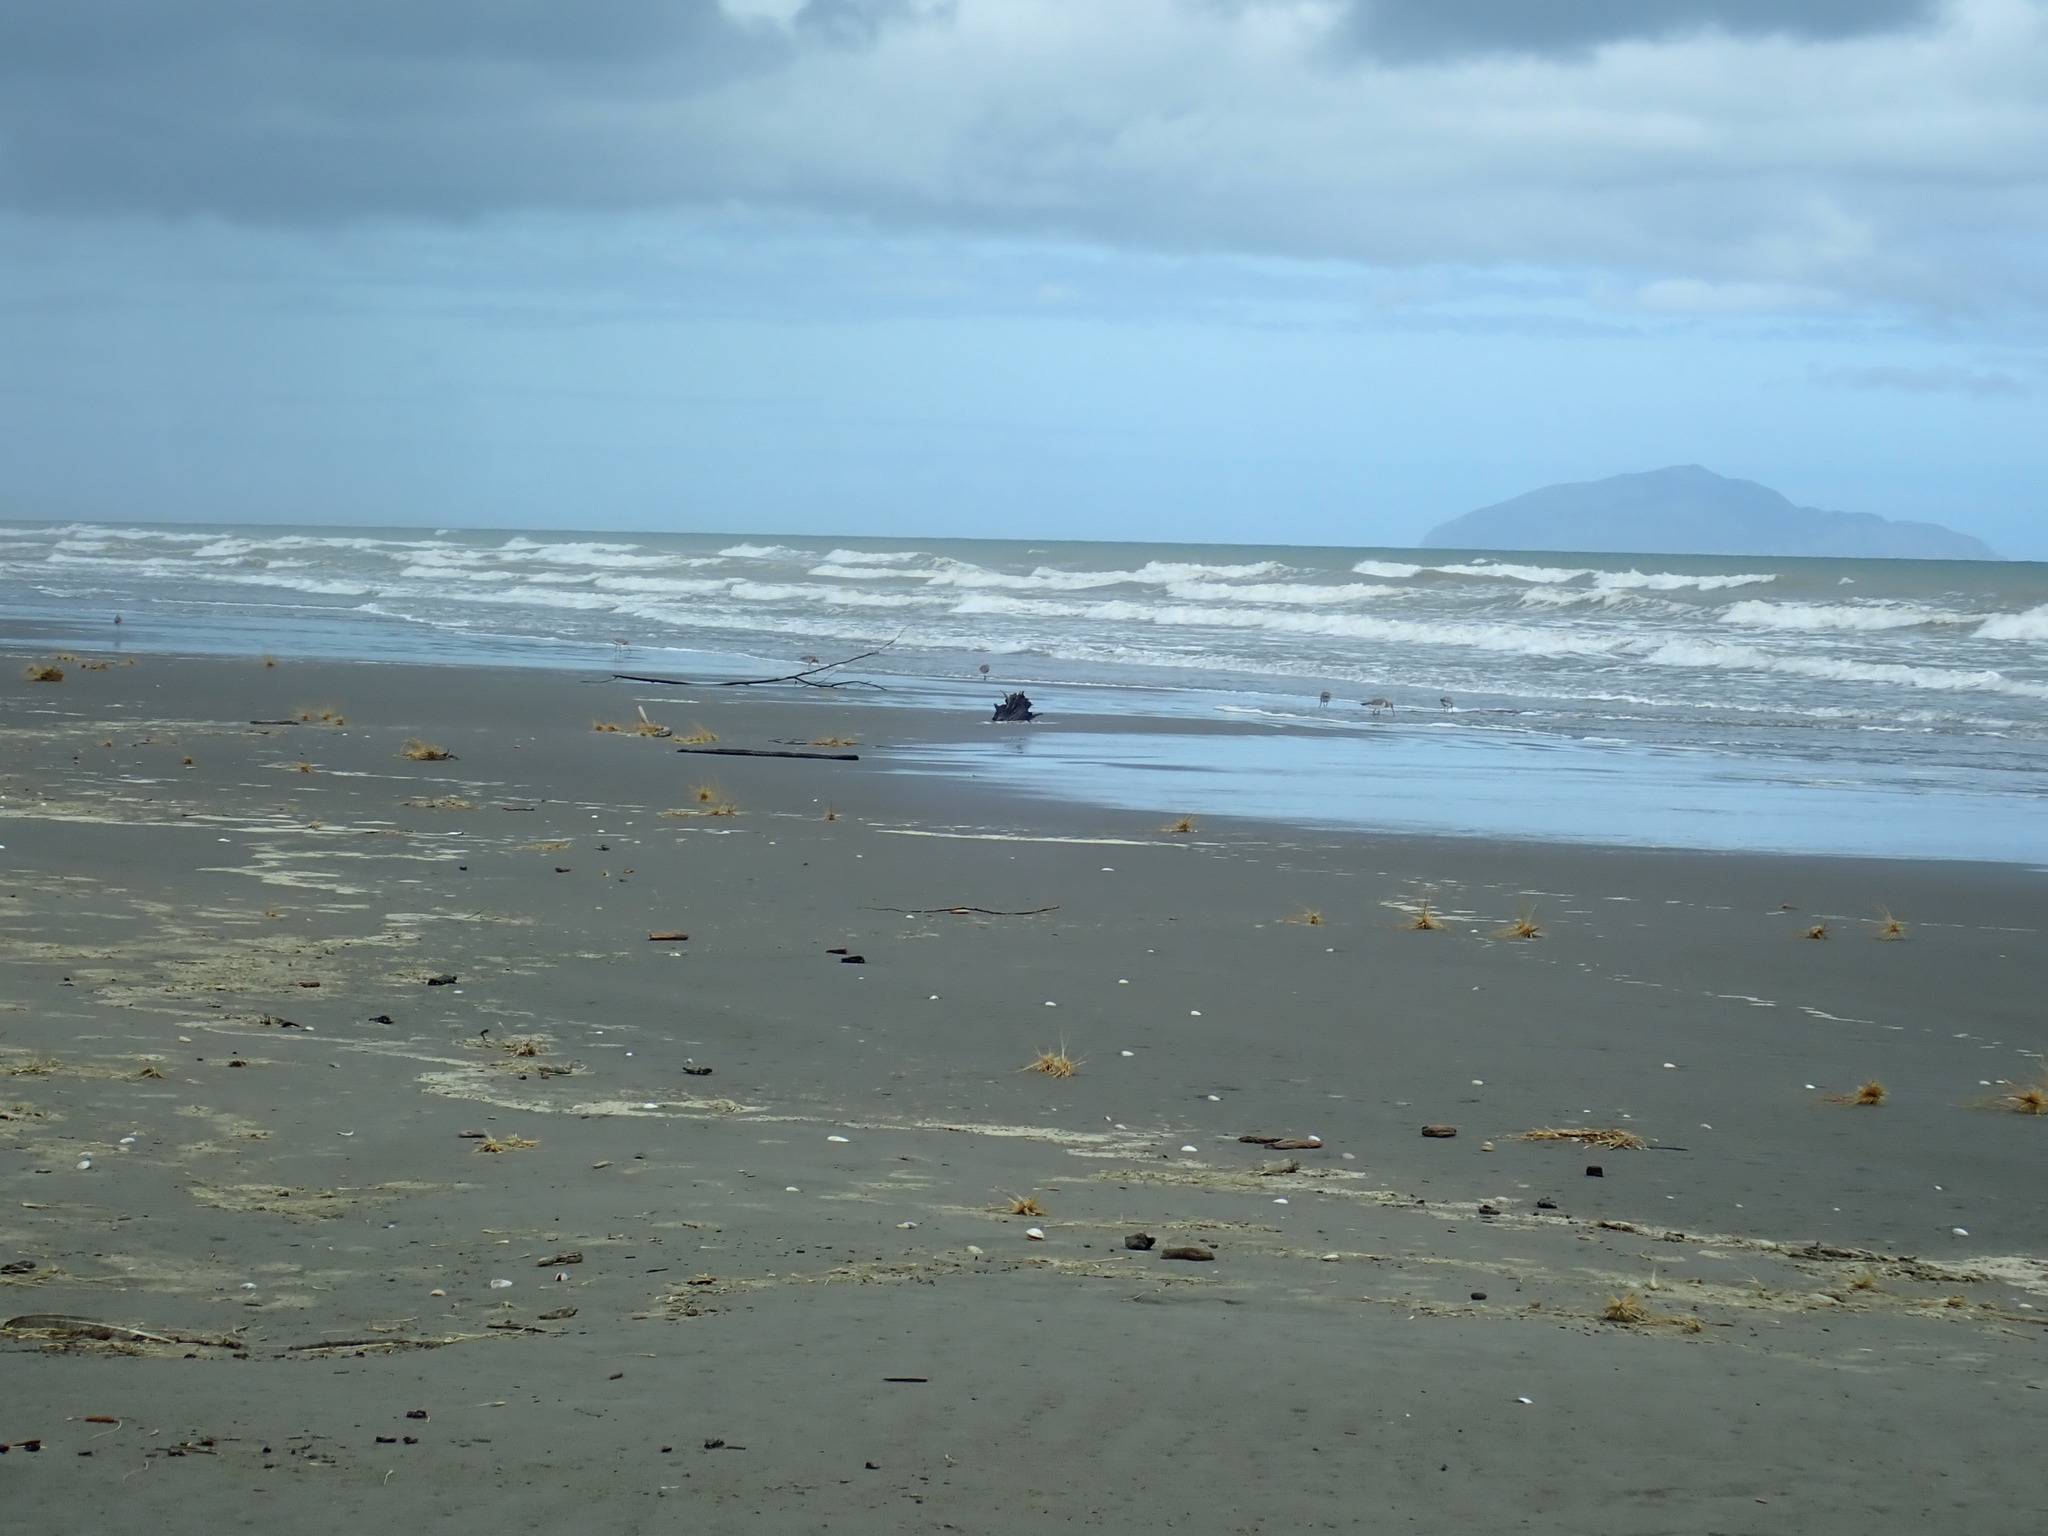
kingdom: Animalia
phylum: Chordata
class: Aves
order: Charadriiformes
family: Scolopacidae
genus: Limosa
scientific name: Limosa lapponica
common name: Bar-tailed godwit
